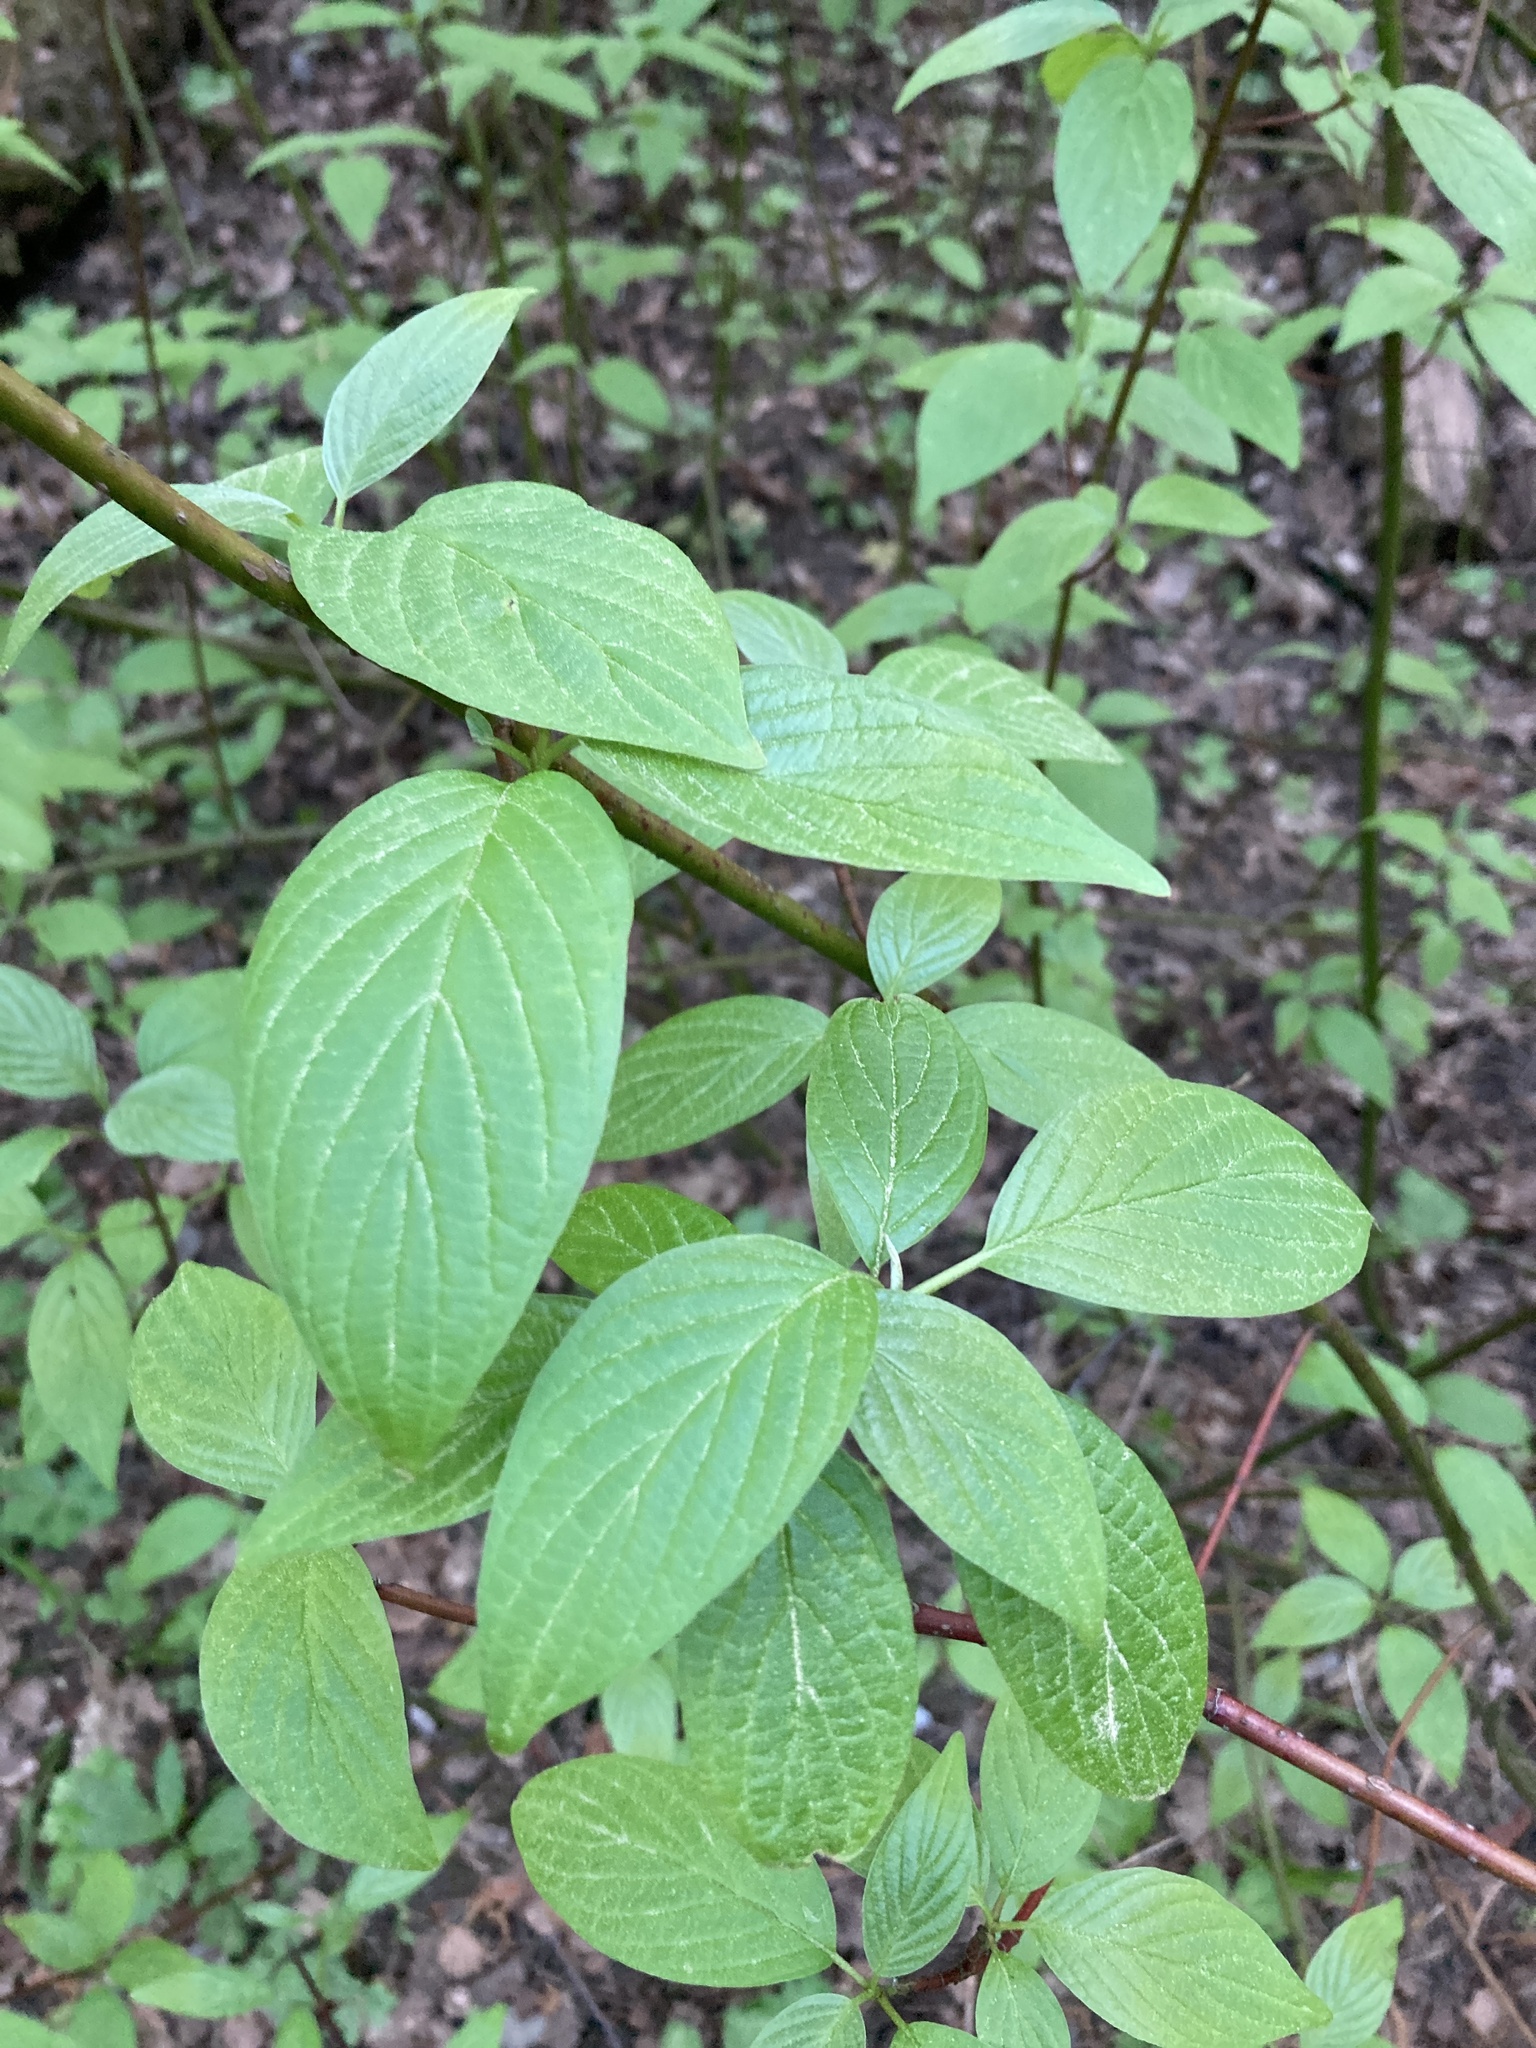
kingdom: Plantae
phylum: Tracheophyta
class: Magnoliopsida
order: Cornales
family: Cornaceae
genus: Cornus
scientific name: Cornus sericea
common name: Red-osier dogwood
